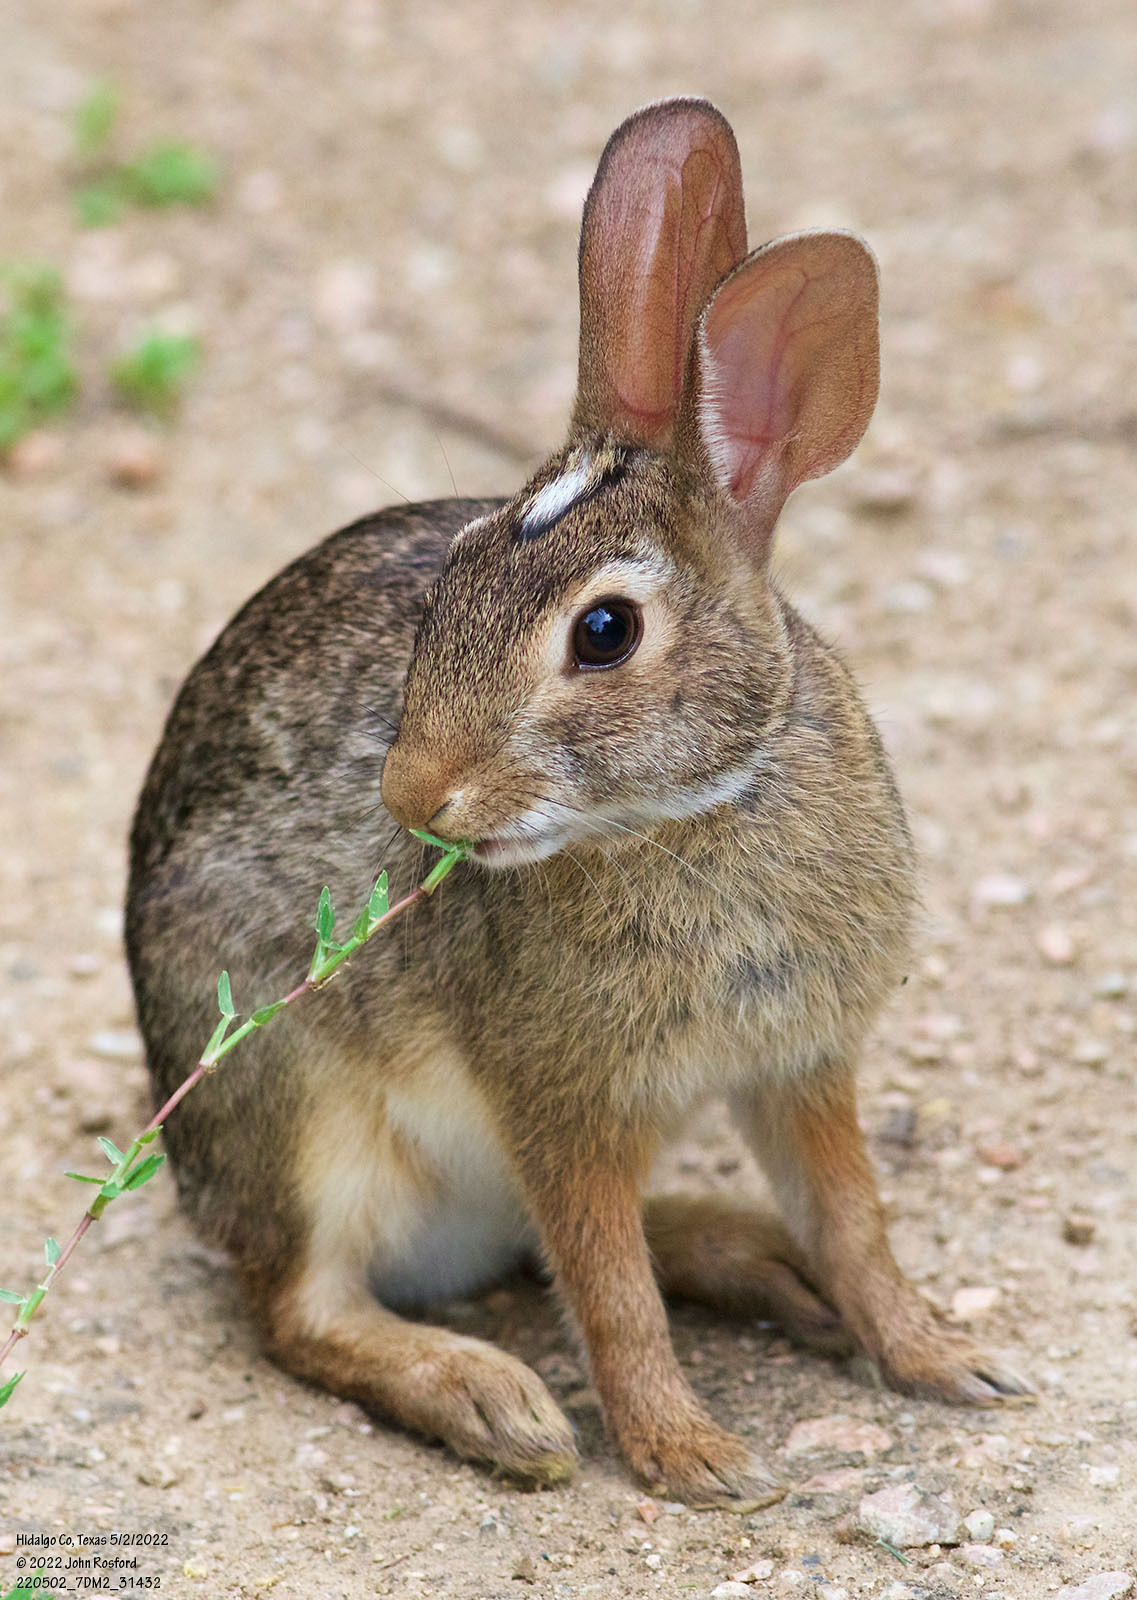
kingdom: Animalia
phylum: Chordata
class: Mammalia
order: Lagomorpha
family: Leporidae
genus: Sylvilagus
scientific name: Sylvilagus floridanus
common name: Eastern cottontail
